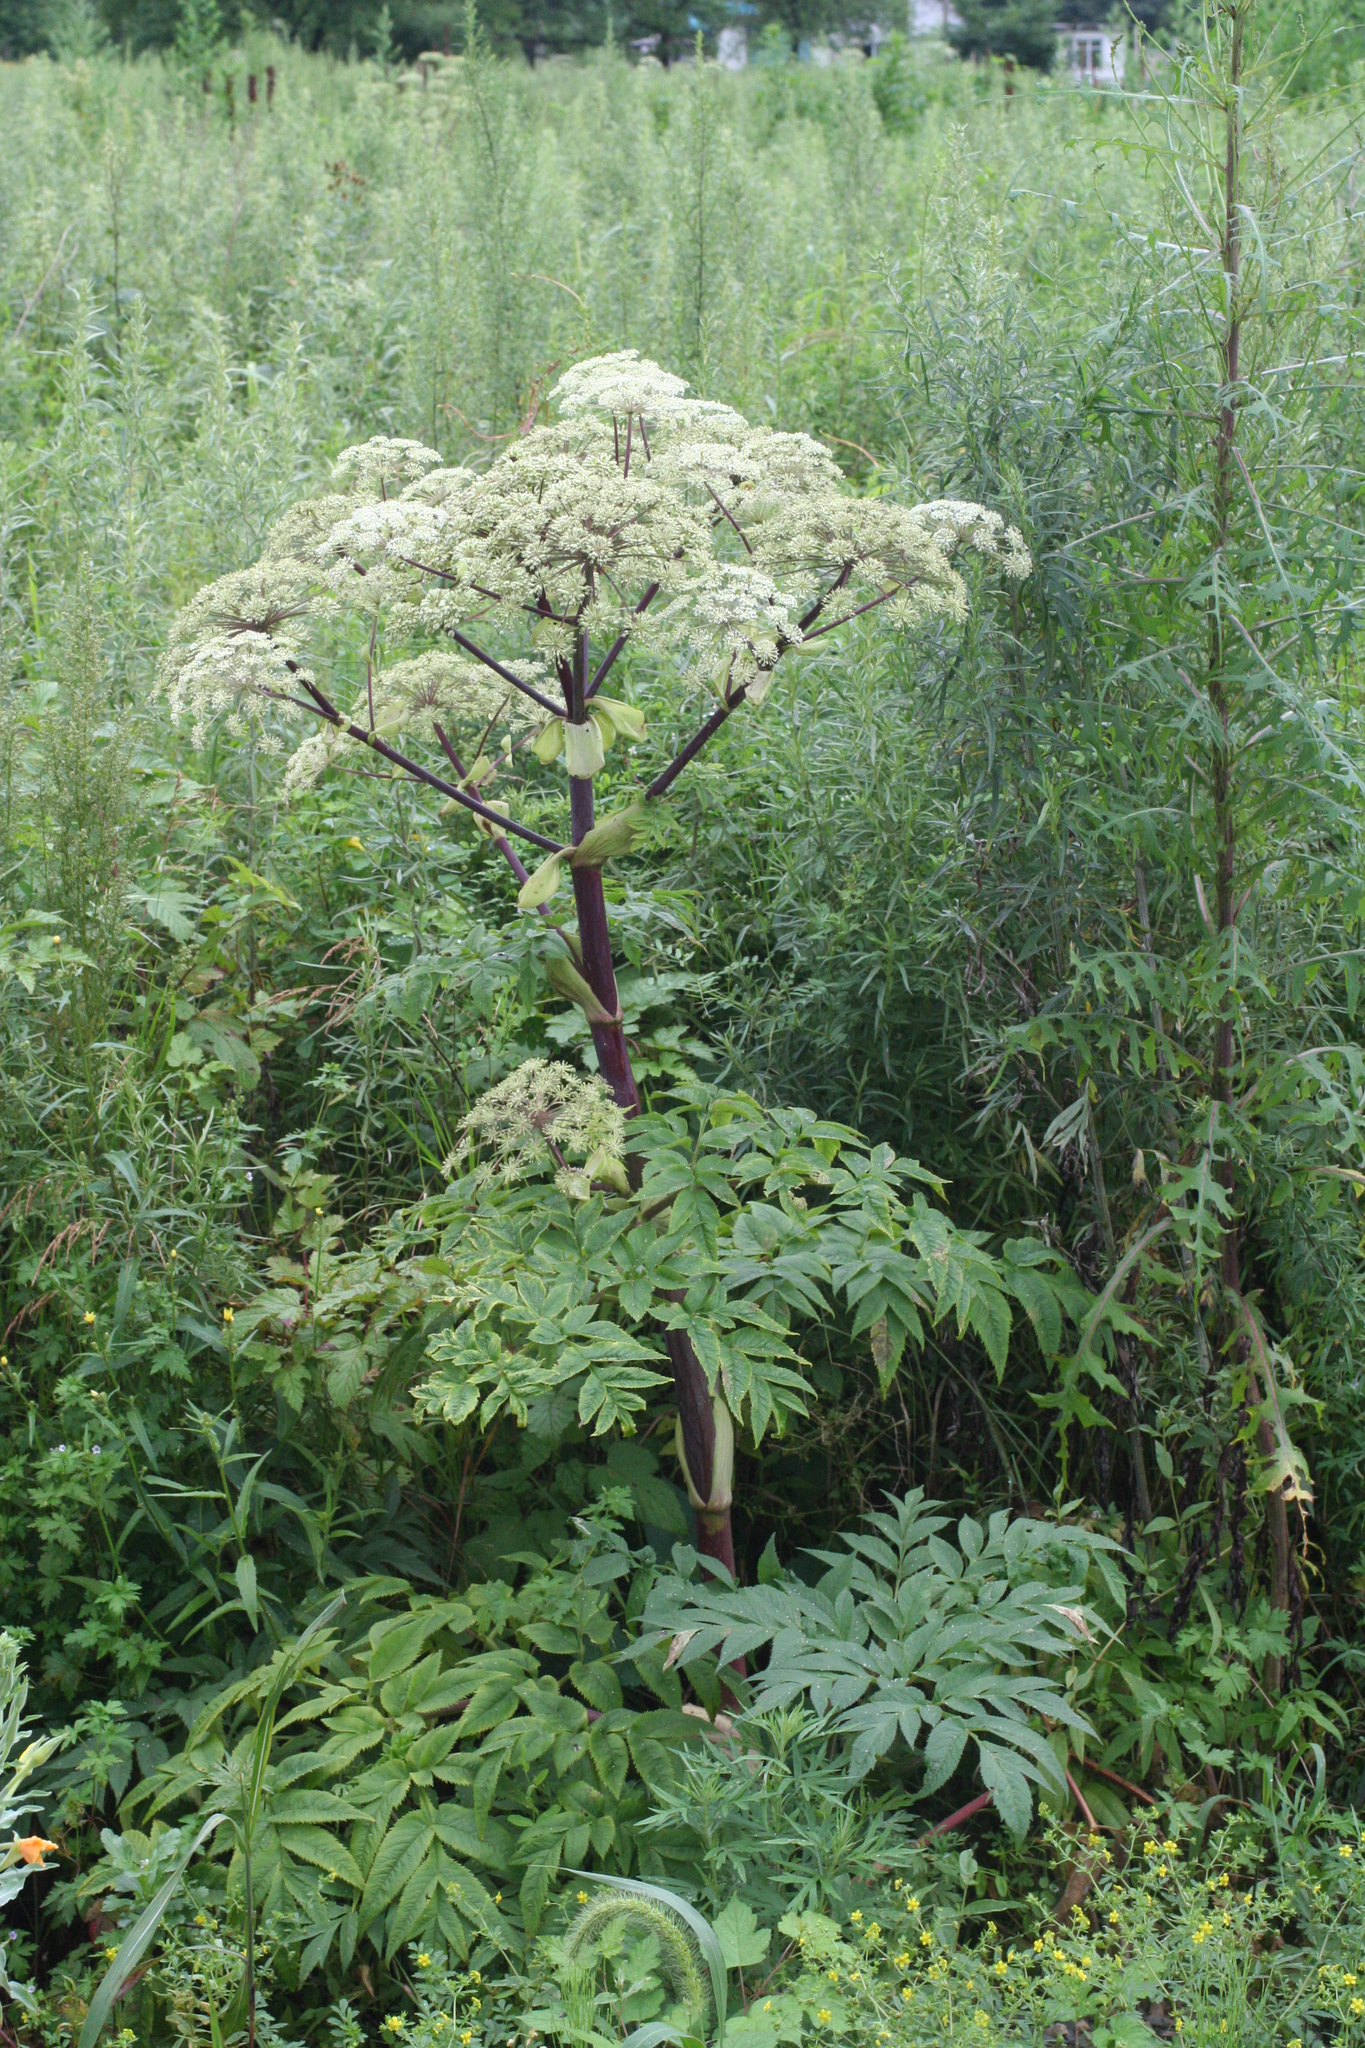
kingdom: Plantae
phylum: Tracheophyta
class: Magnoliopsida
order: Apiales
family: Apiaceae
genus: Angelica
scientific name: Angelica dahurica
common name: Dahurian angelica
